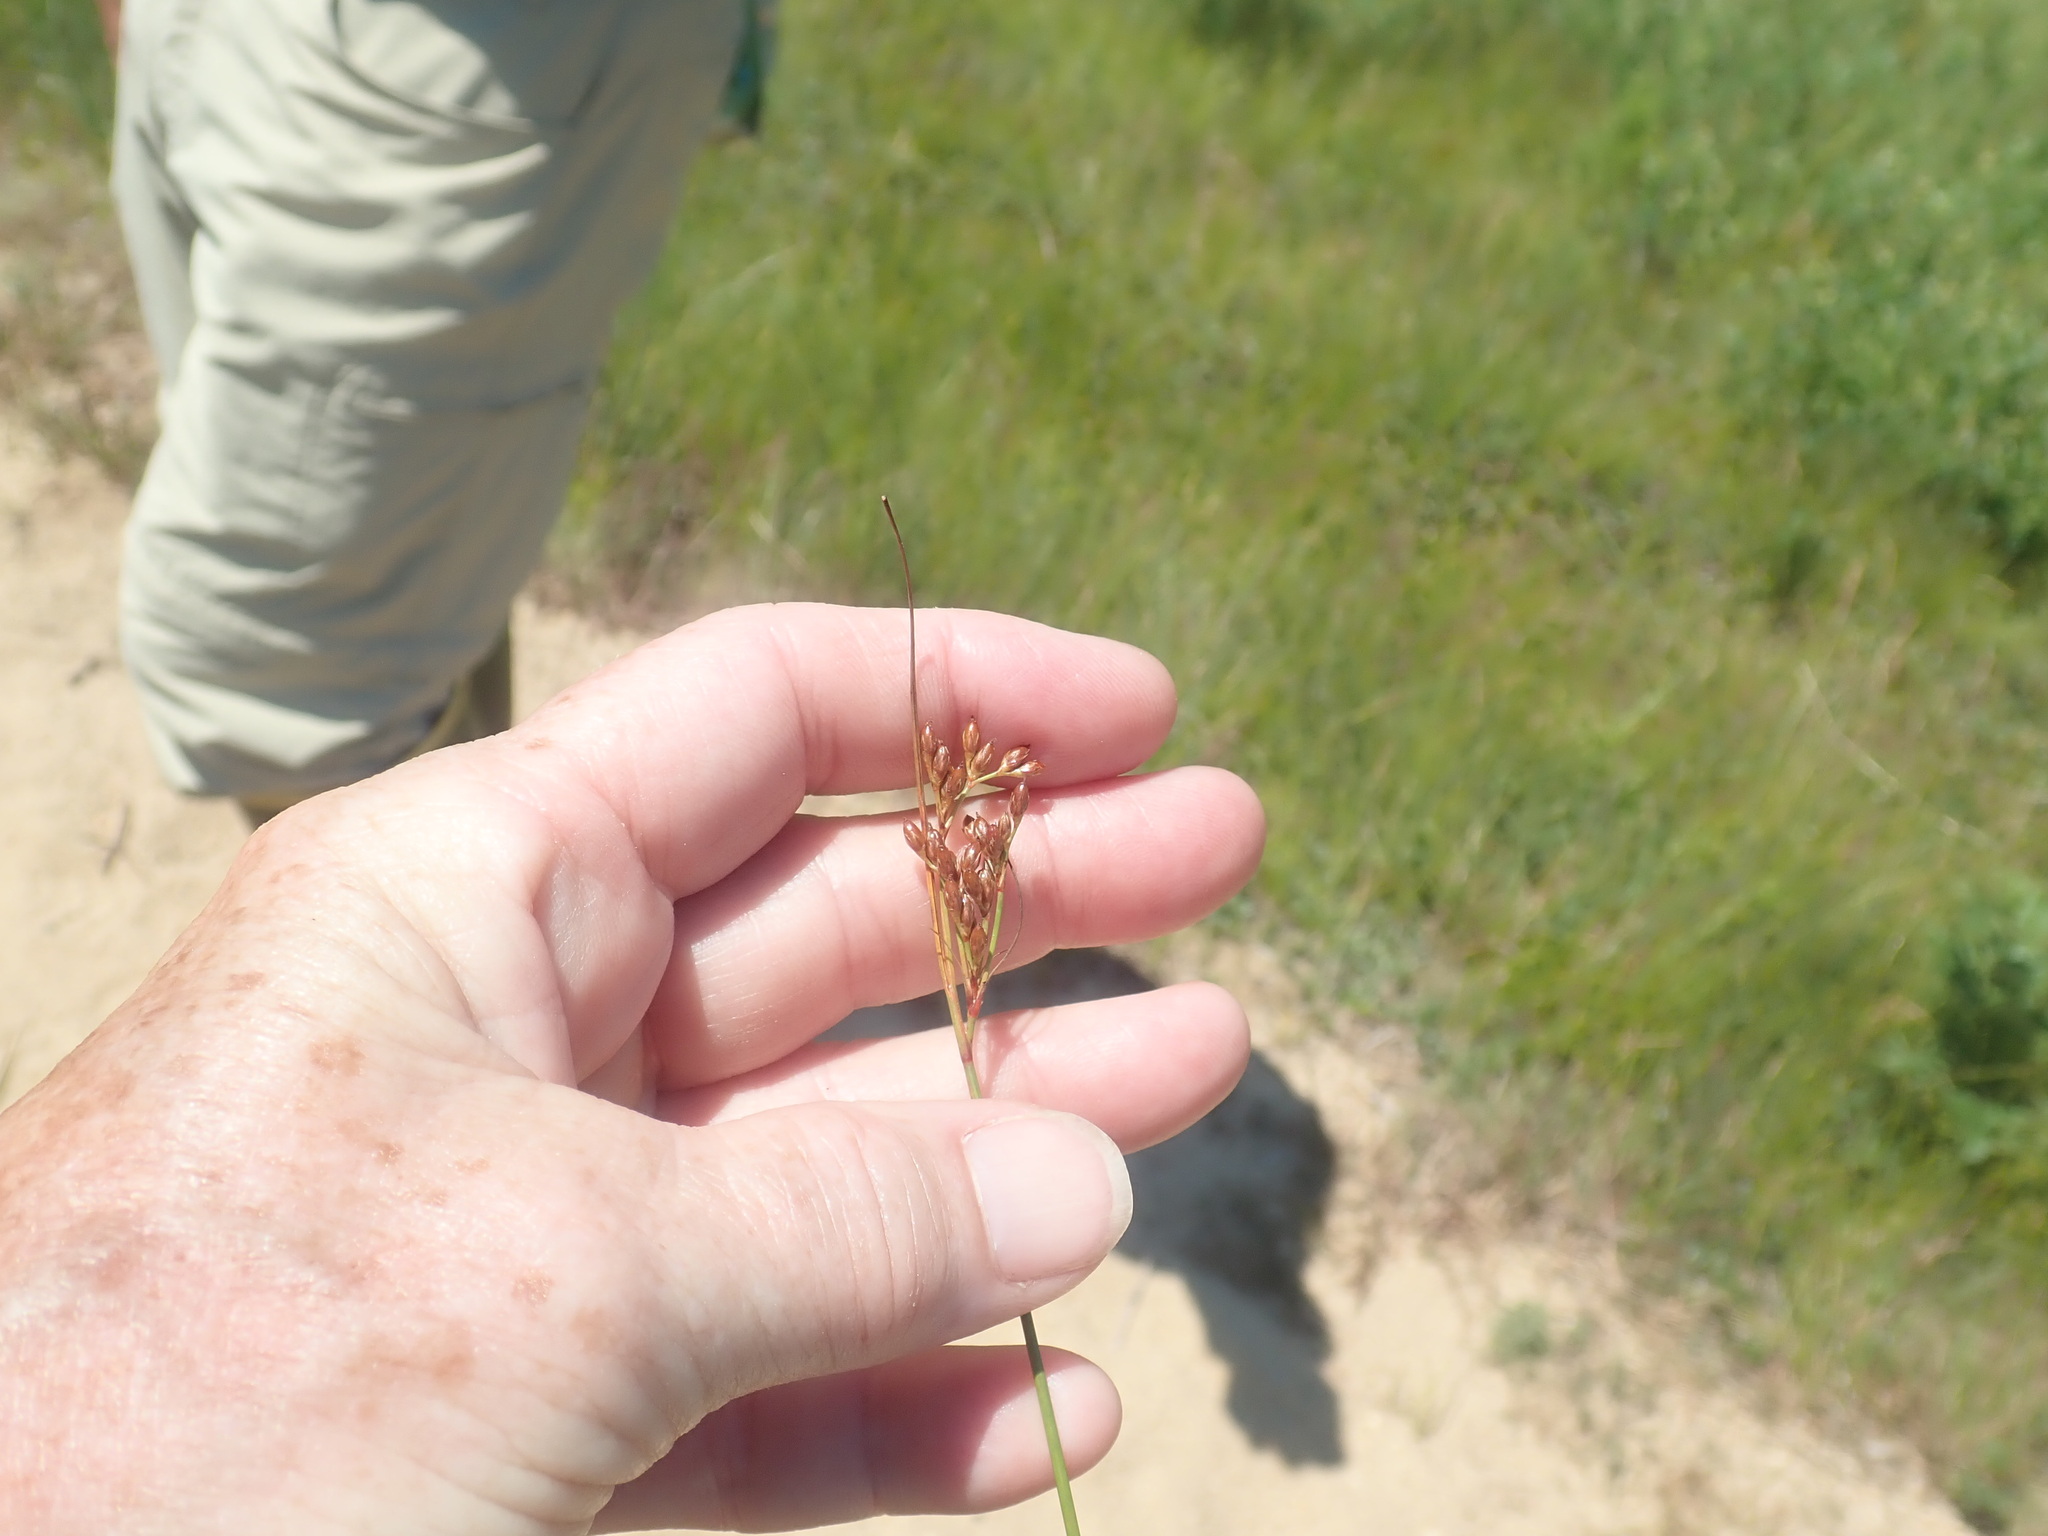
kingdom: Plantae
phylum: Tracheophyta
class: Liliopsida
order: Poales
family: Juncaceae
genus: Juncus
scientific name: Juncus greenei
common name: Greene's rush
